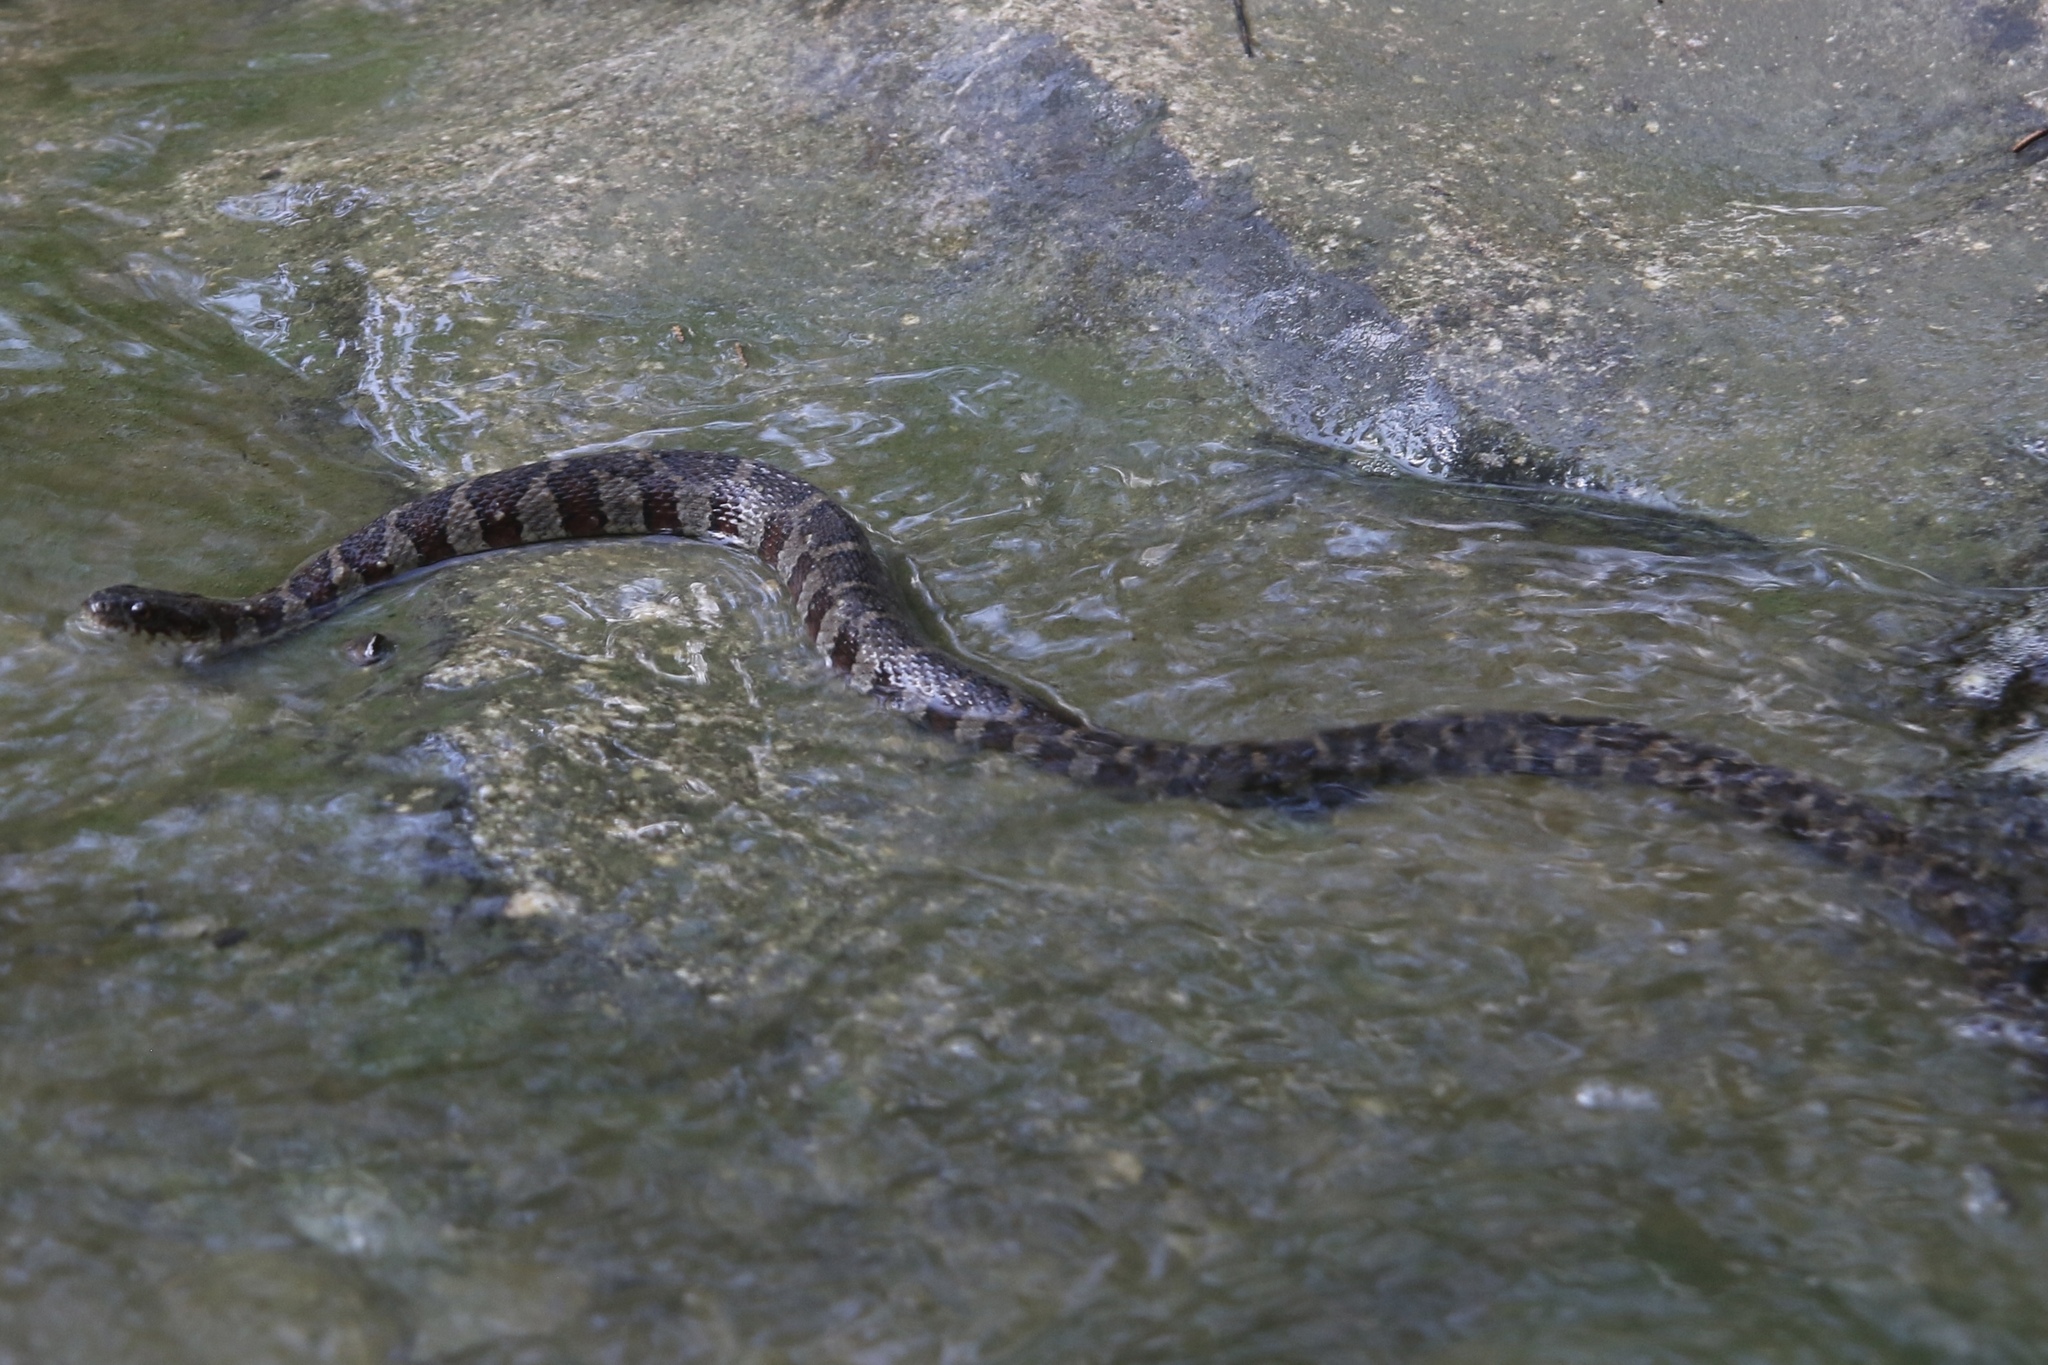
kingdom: Animalia
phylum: Chordata
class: Squamata
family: Colubridae
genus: Nerodia
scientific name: Nerodia sipedon
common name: Northern water snake
